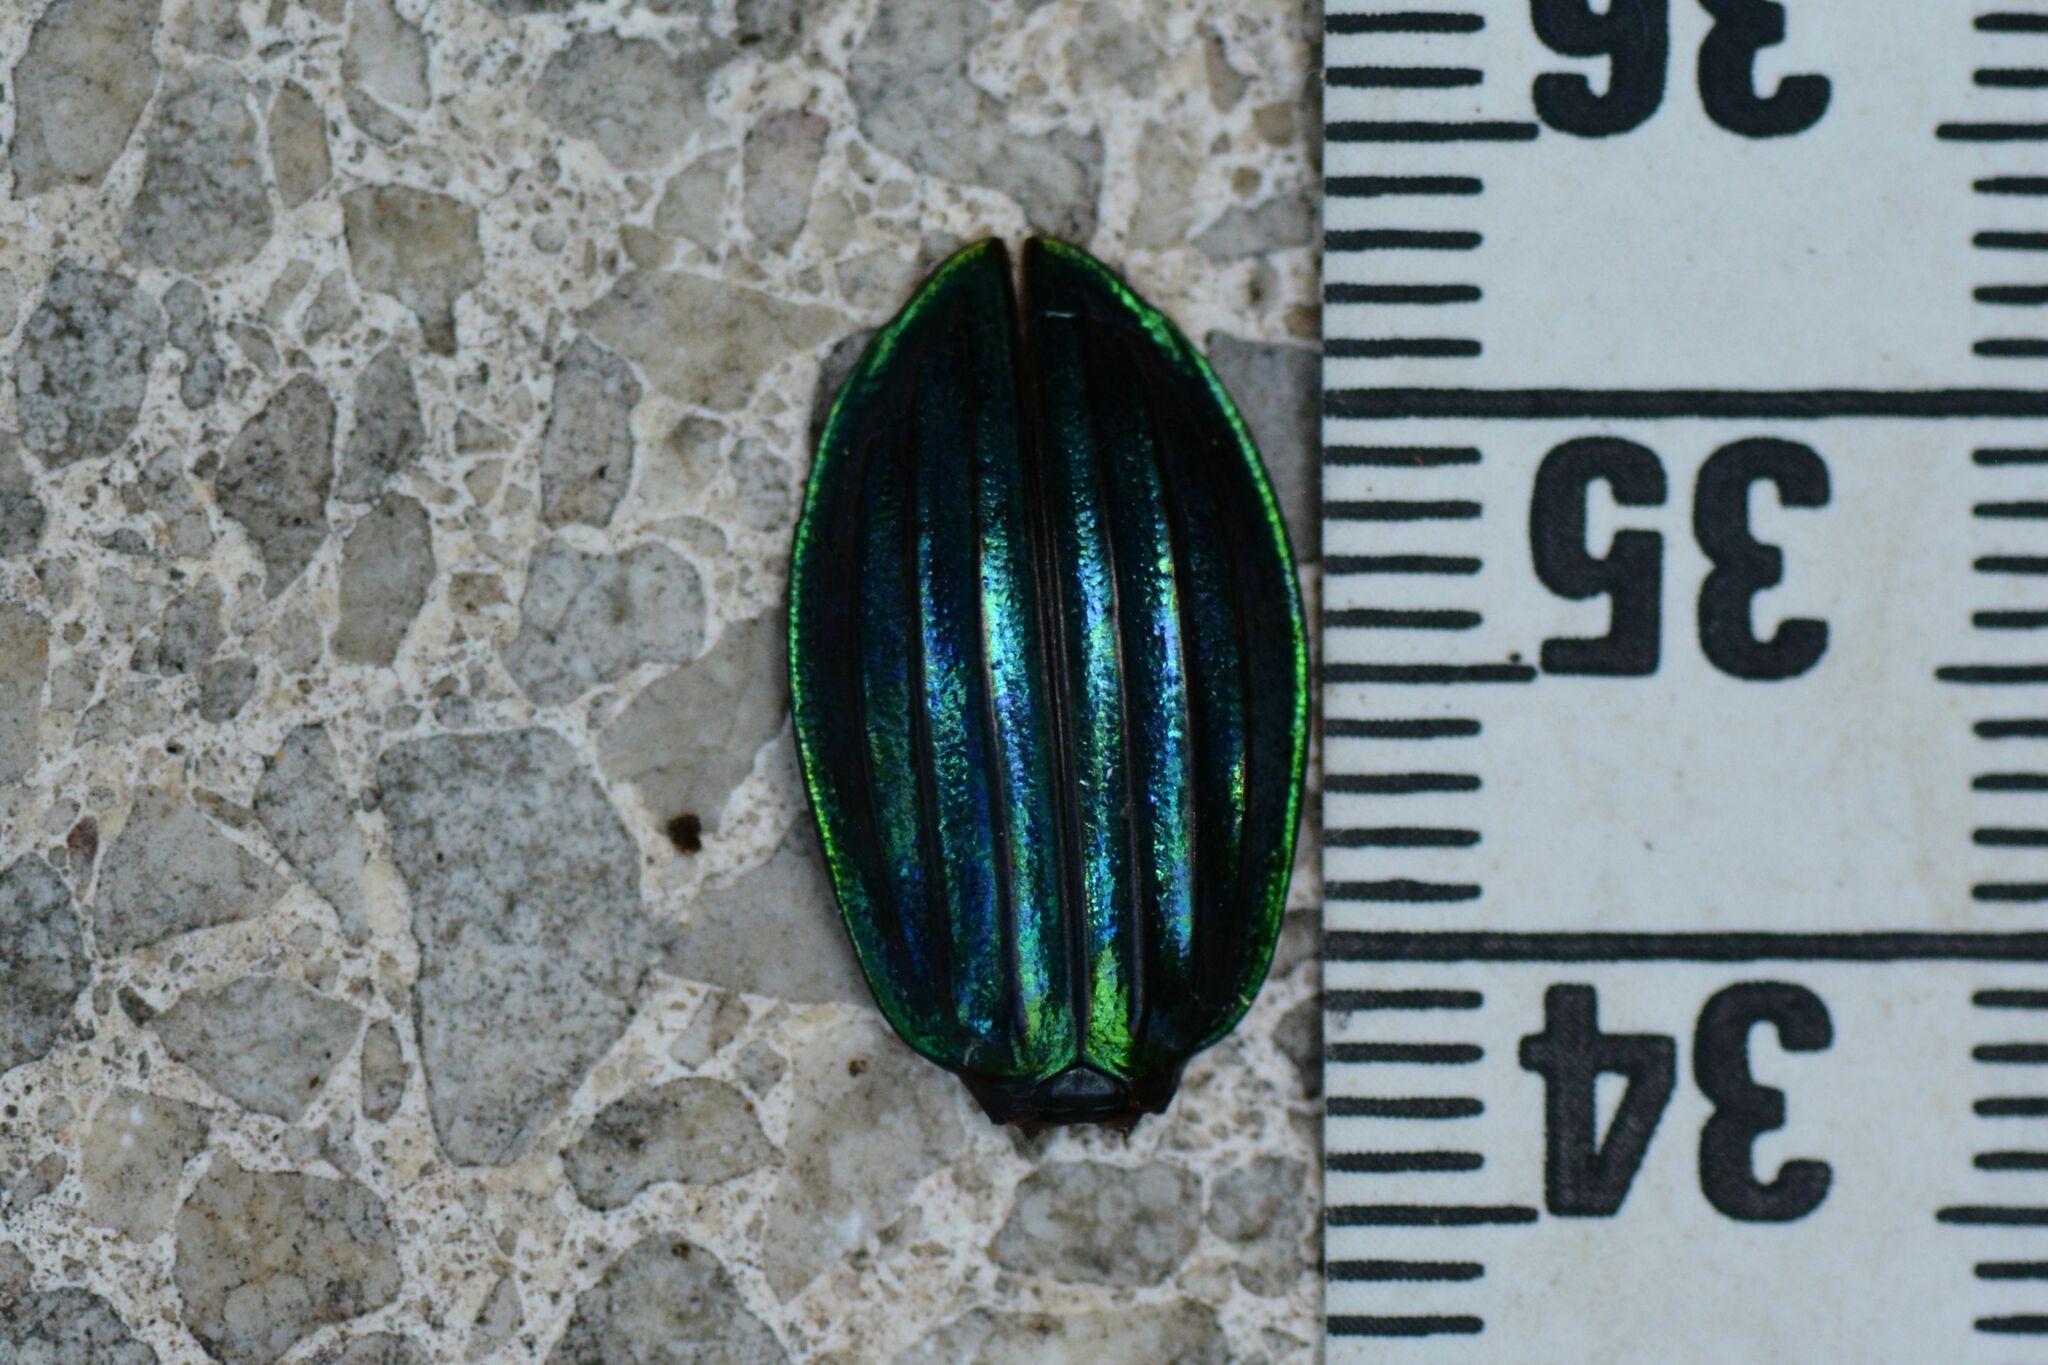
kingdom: Animalia
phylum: Arthropoda
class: Insecta
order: Coleoptera
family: Carabidae
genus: Carabus
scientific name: Carabus auronitens
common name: Carabus auronitens
